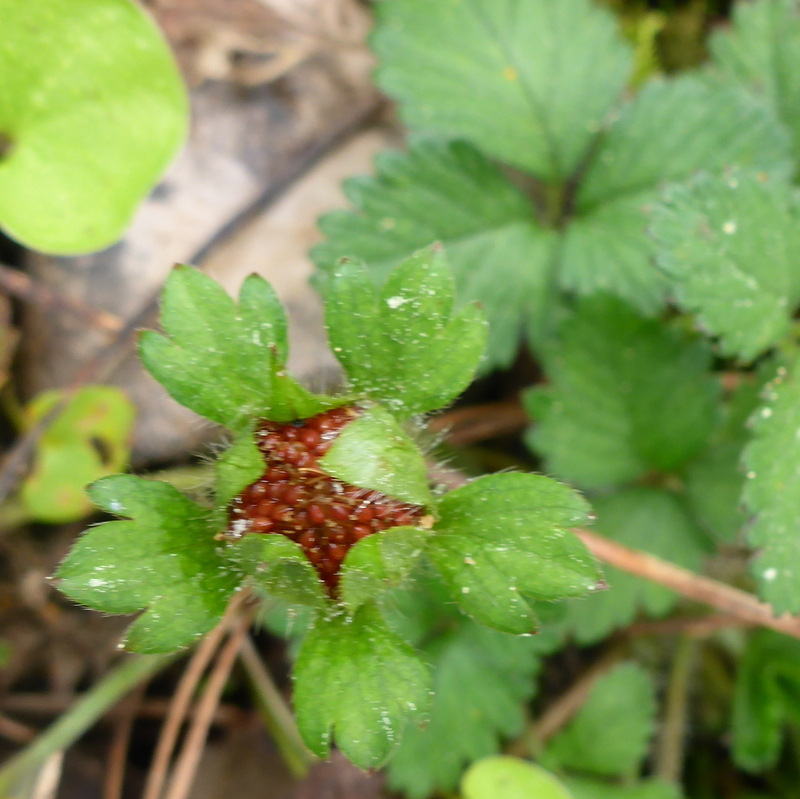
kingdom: Plantae
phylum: Tracheophyta
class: Magnoliopsida
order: Rosales
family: Rosaceae
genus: Potentilla
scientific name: Potentilla indica
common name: Yellow-flowered strawberry
